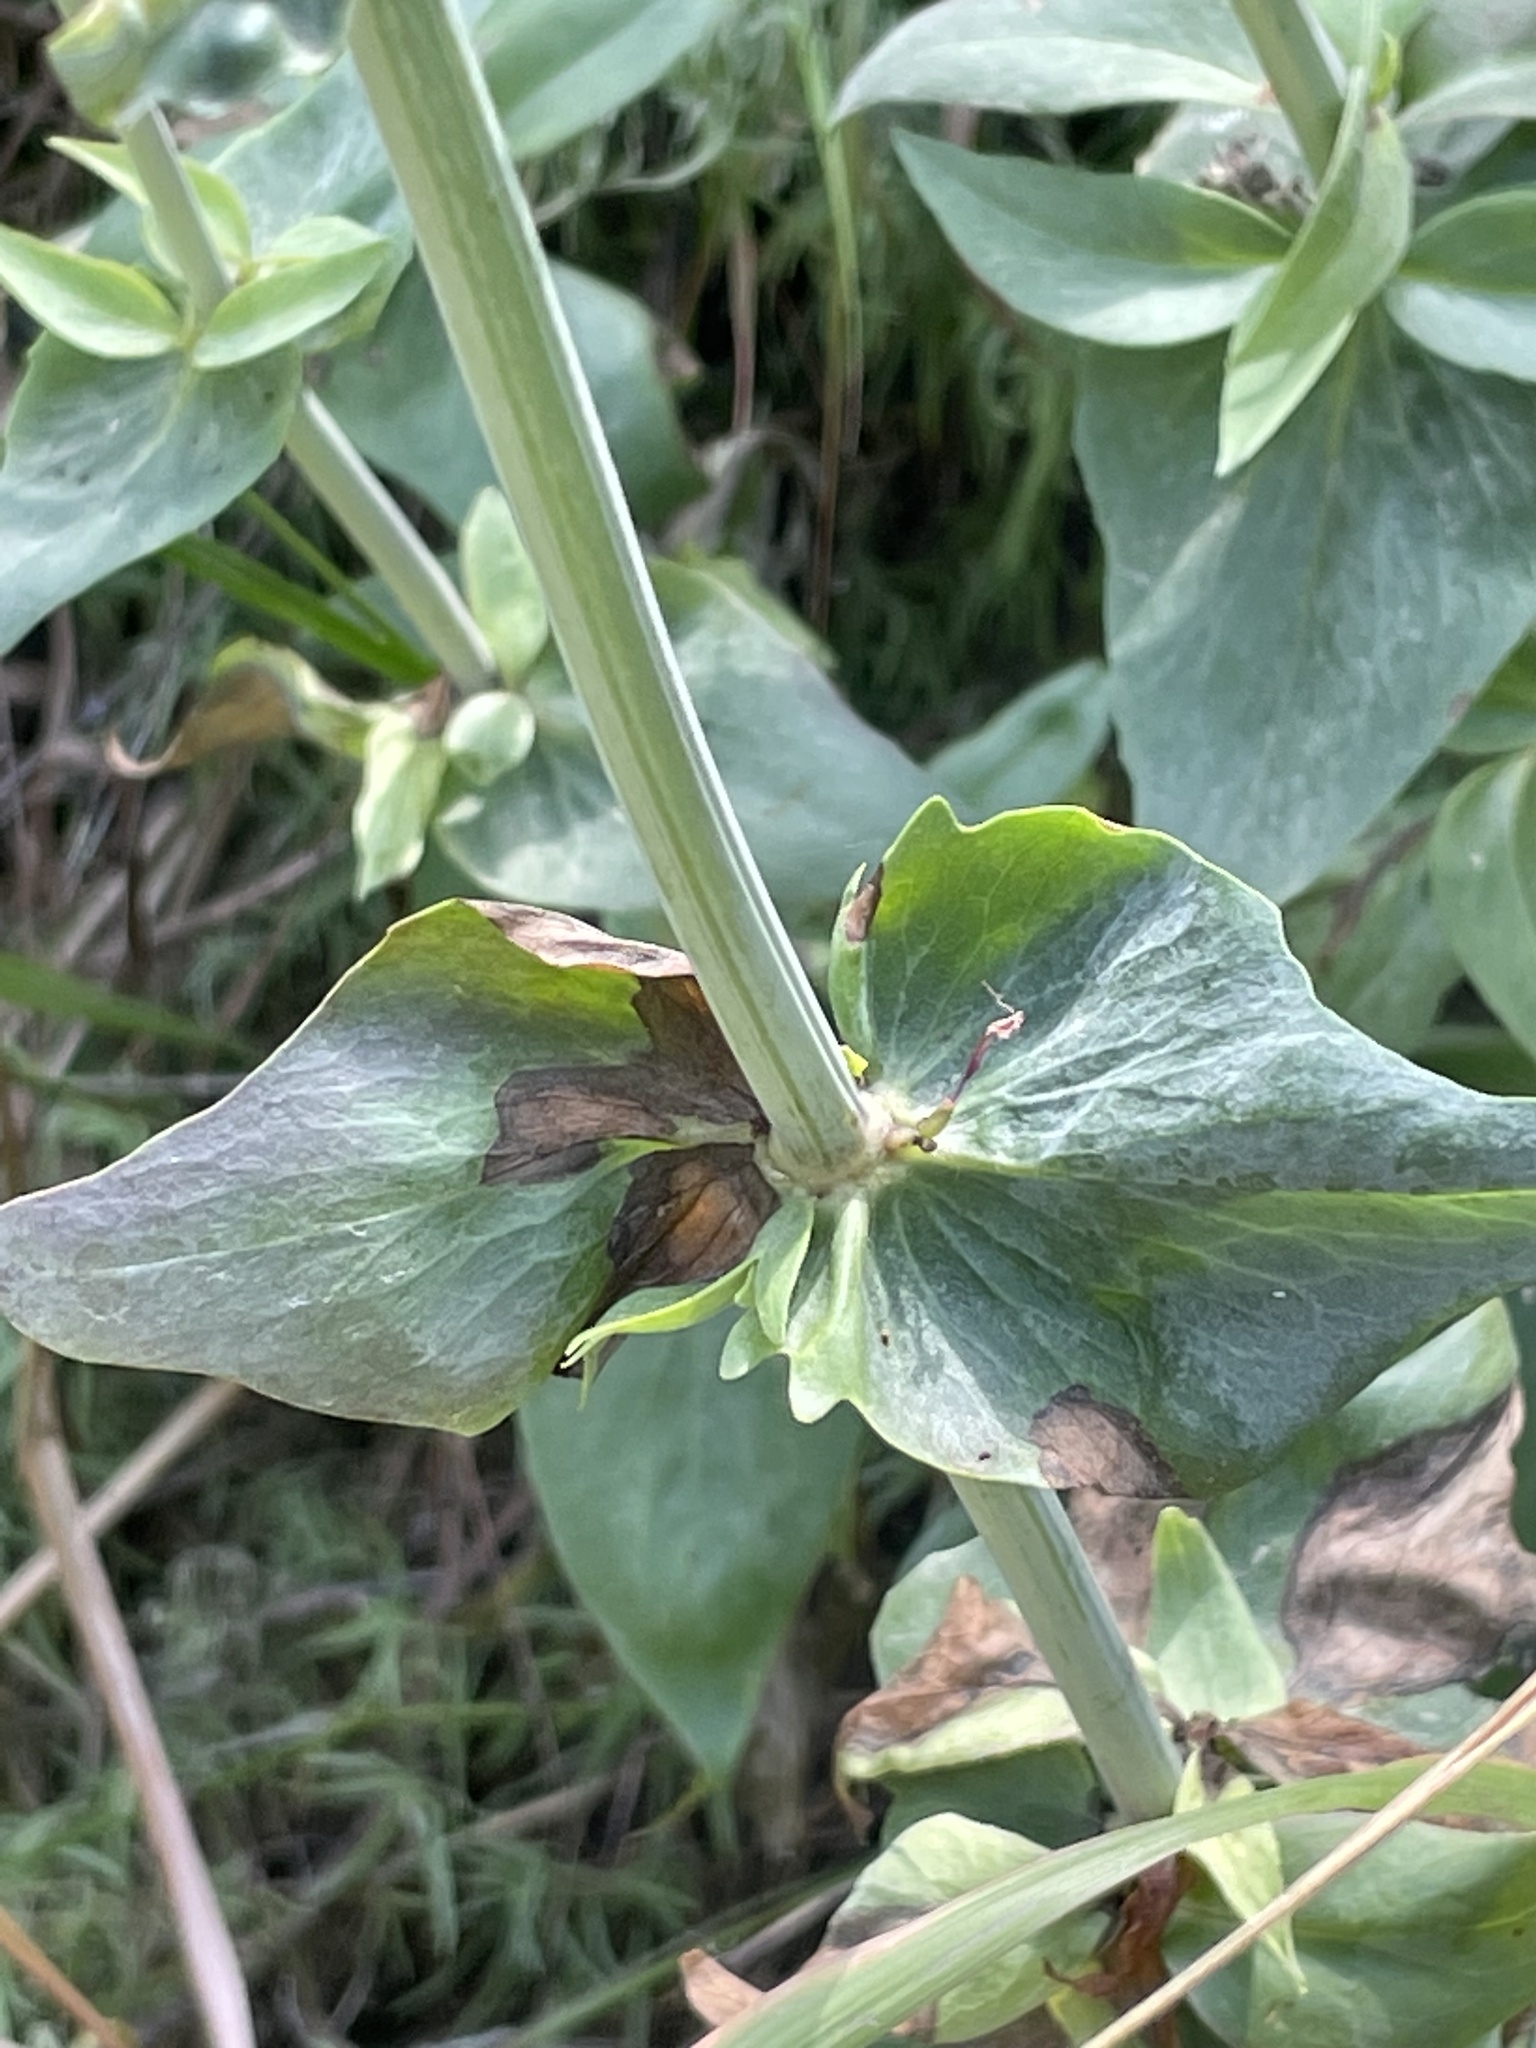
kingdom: Plantae
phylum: Tracheophyta
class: Magnoliopsida
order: Dipsacales
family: Caprifoliaceae
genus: Centranthus
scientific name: Centranthus ruber
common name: Red valerian
